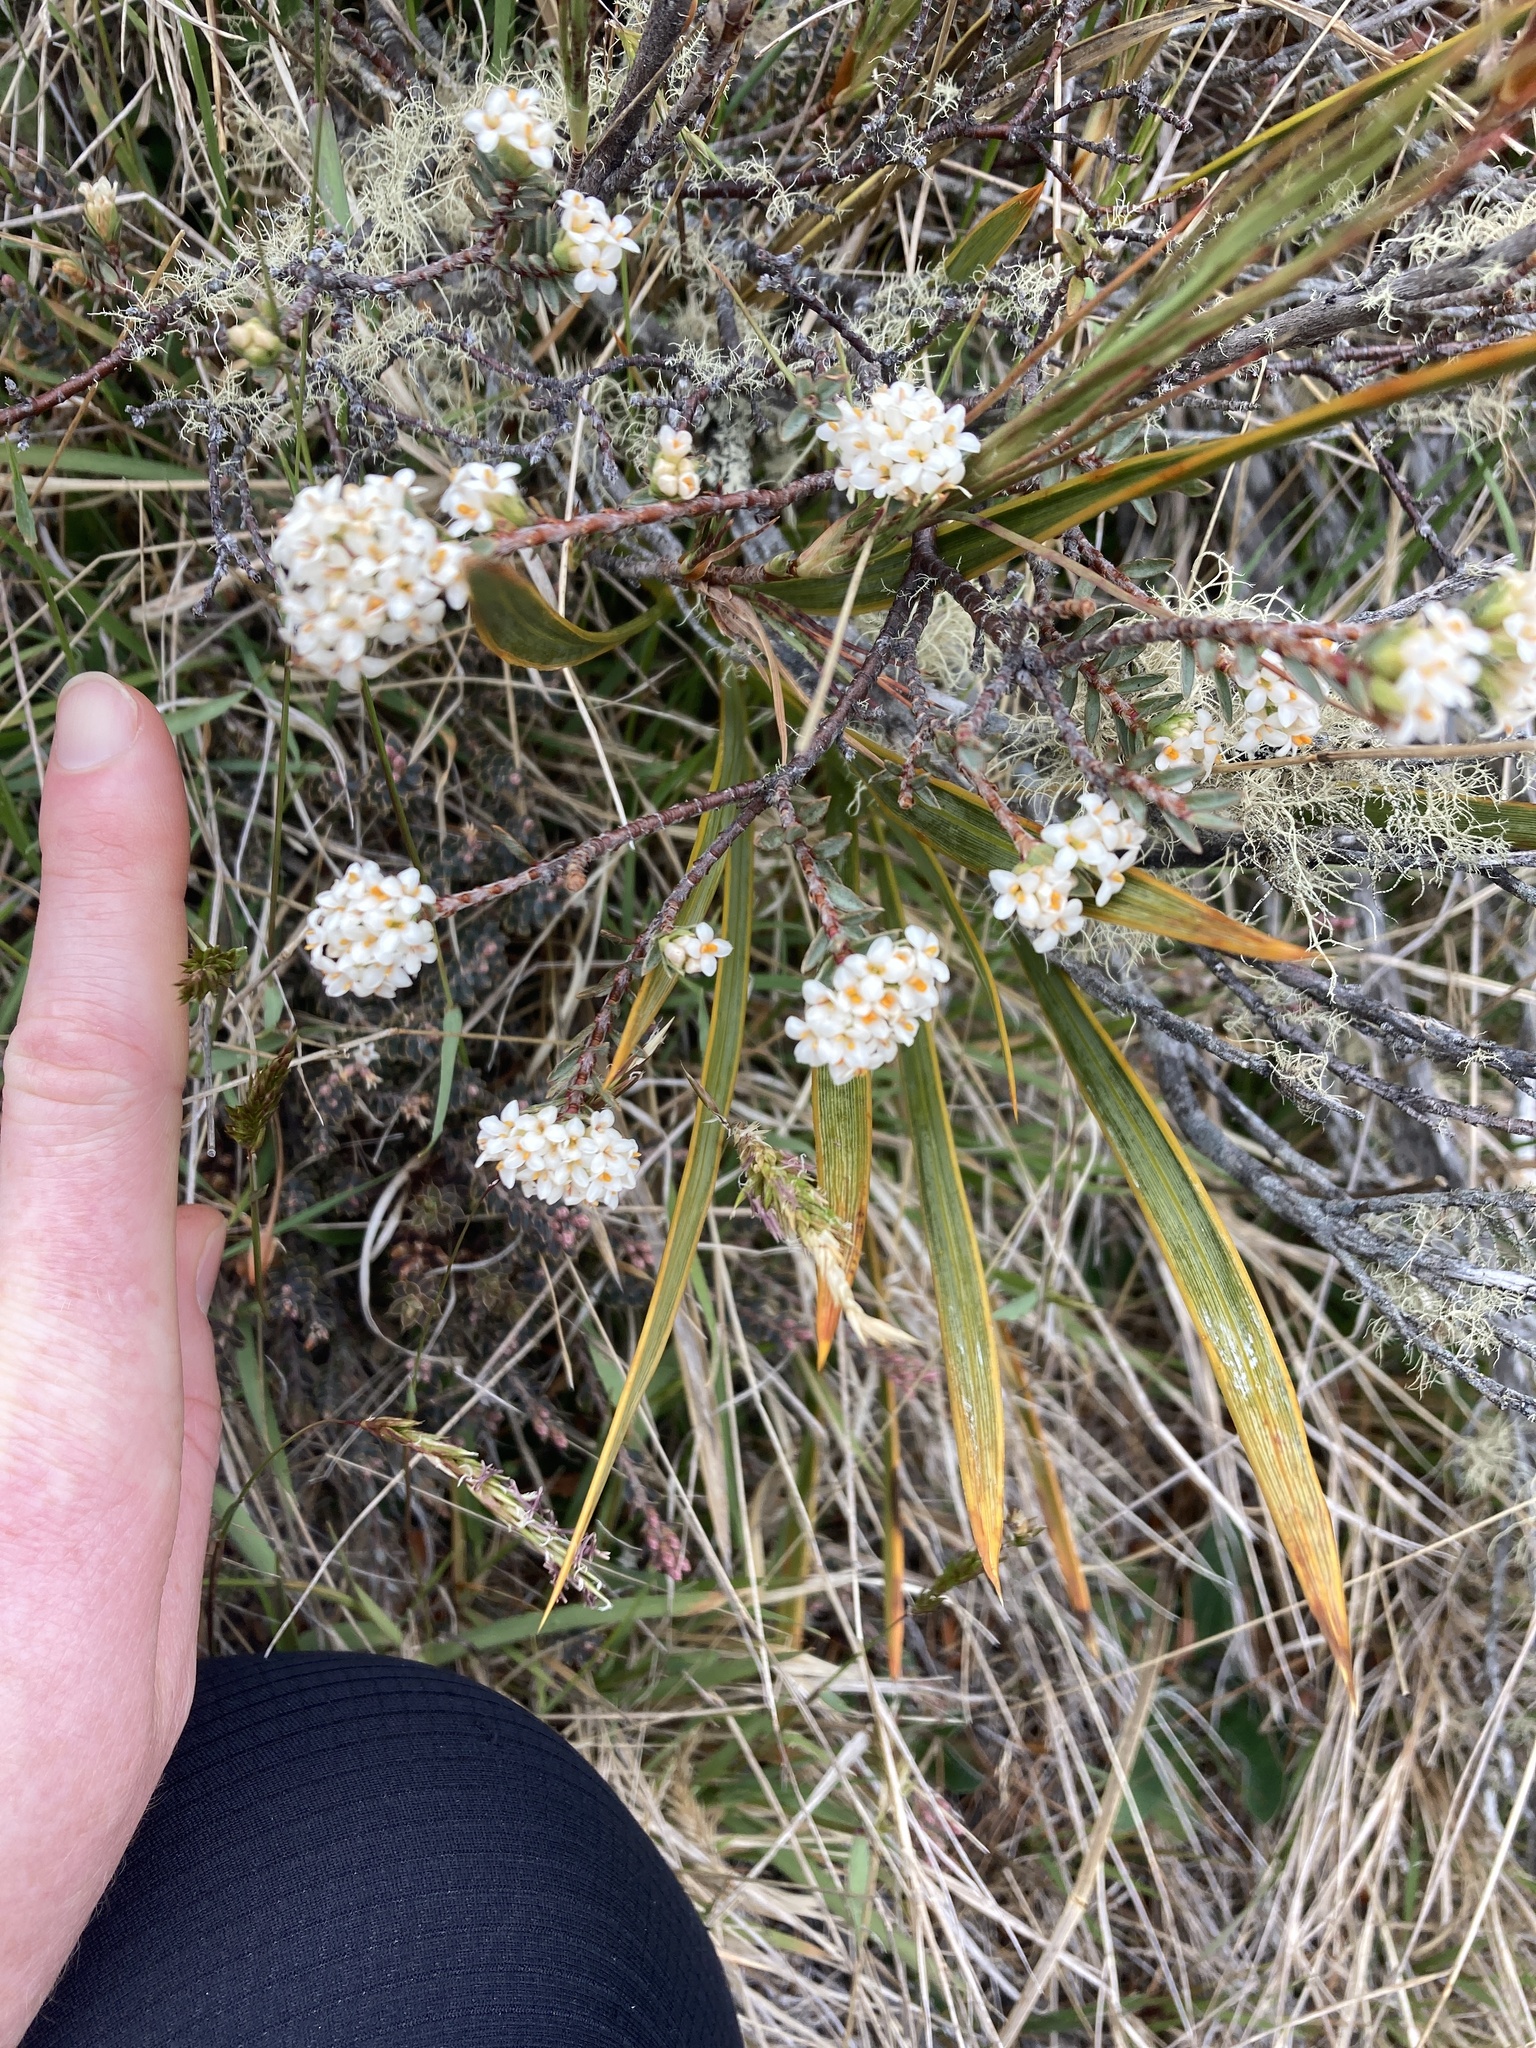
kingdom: Plantae
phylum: Tracheophyta
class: Magnoliopsida
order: Malvales
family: Thymelaeaceae
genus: Pimelea
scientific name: Pimelea oreophila
